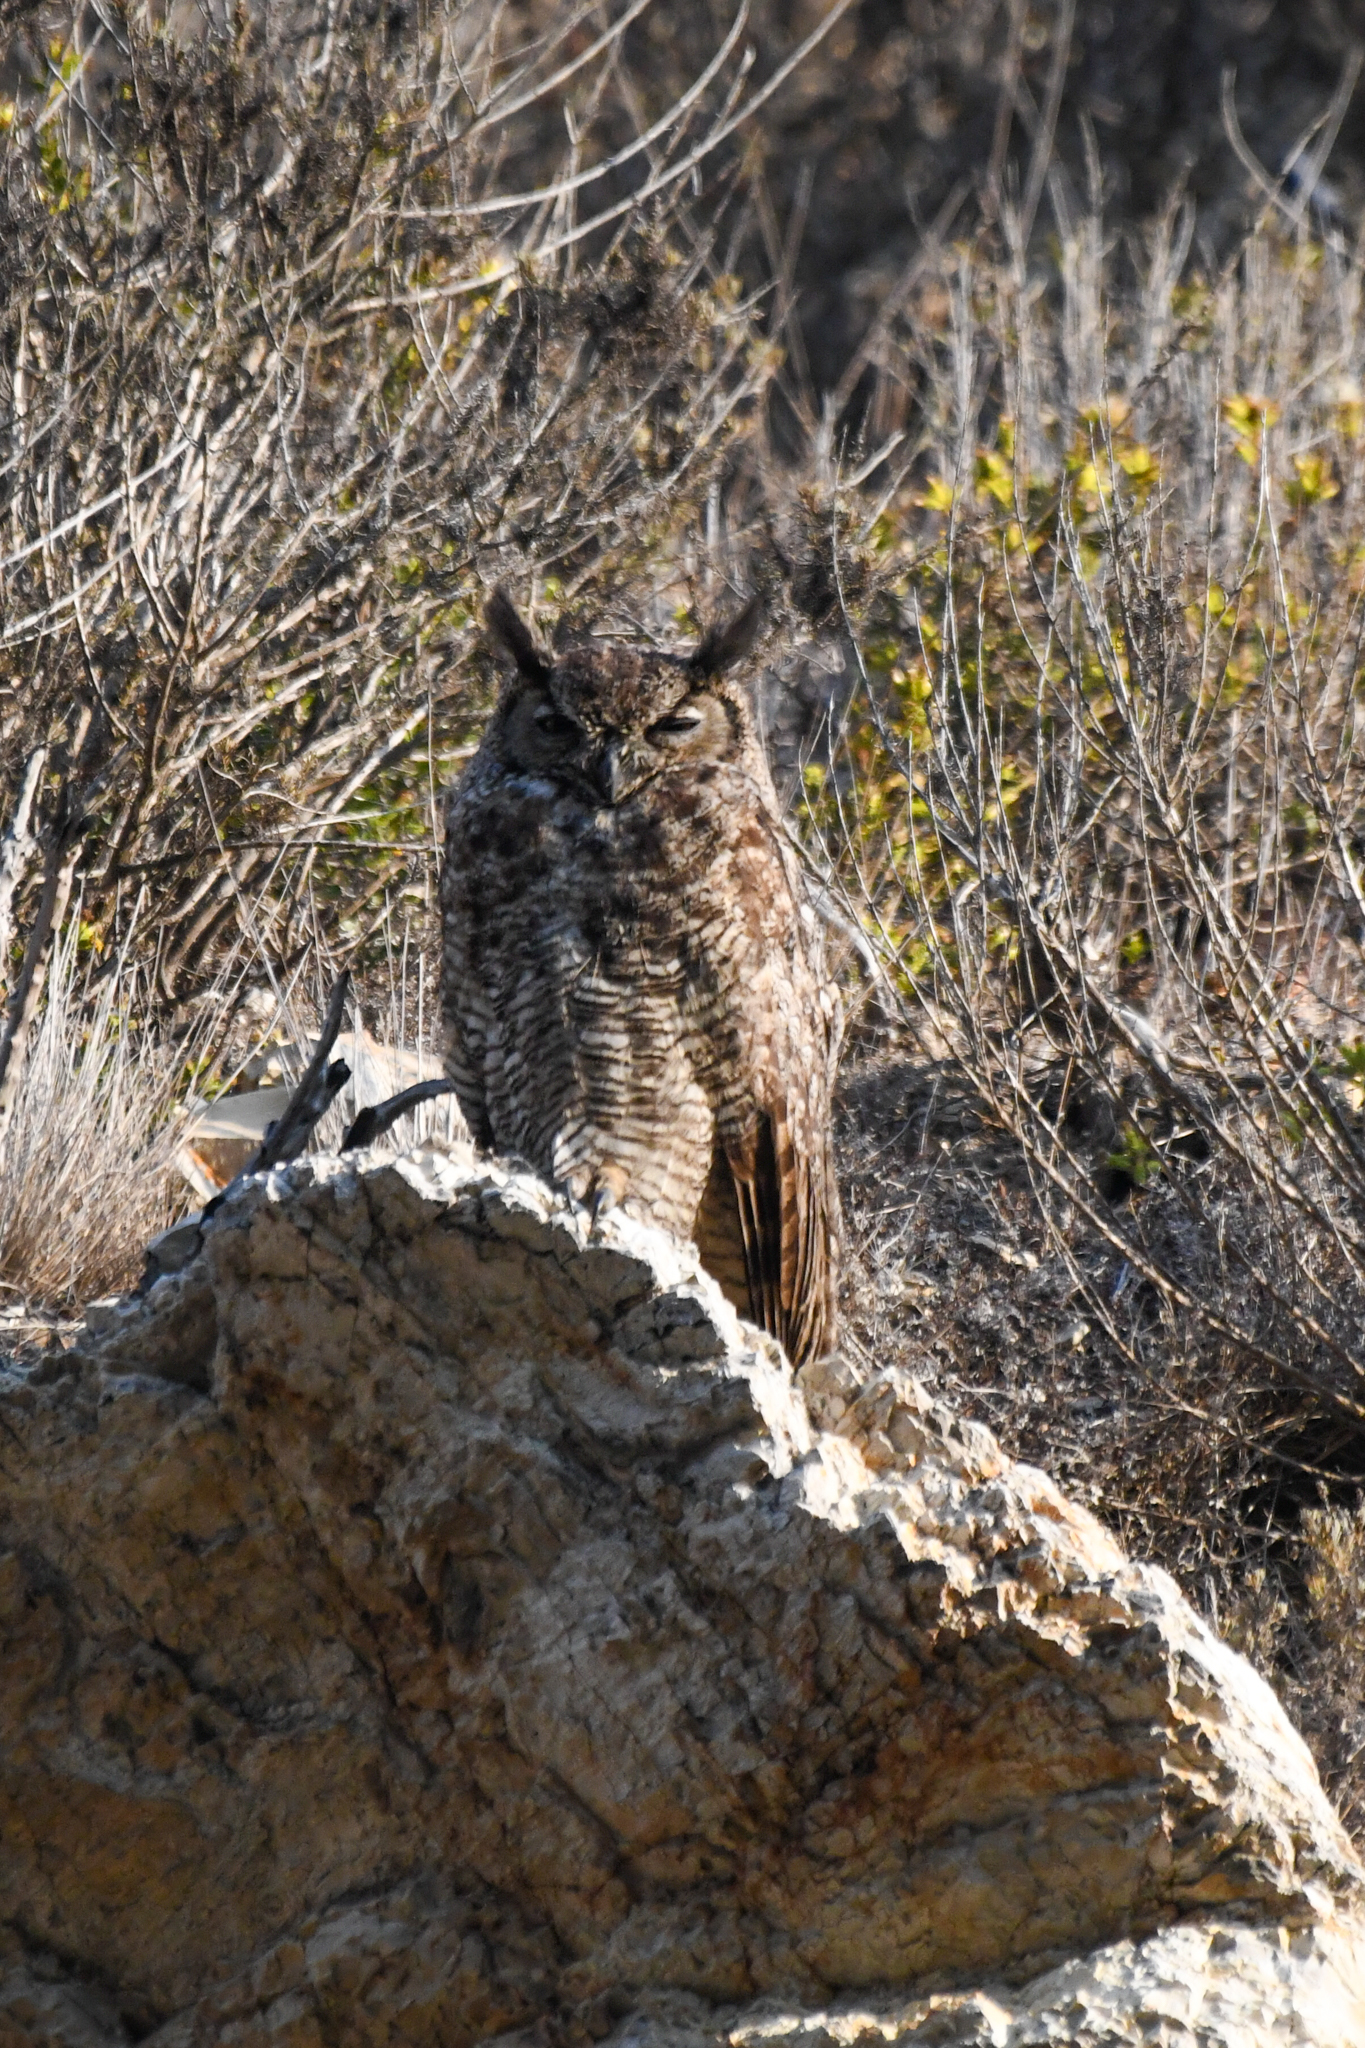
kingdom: Animalia
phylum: Chordata
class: Aves
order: Strigiformes
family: Strigidae
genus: Bubo
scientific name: Bubo virginianus
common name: Great horned owl
